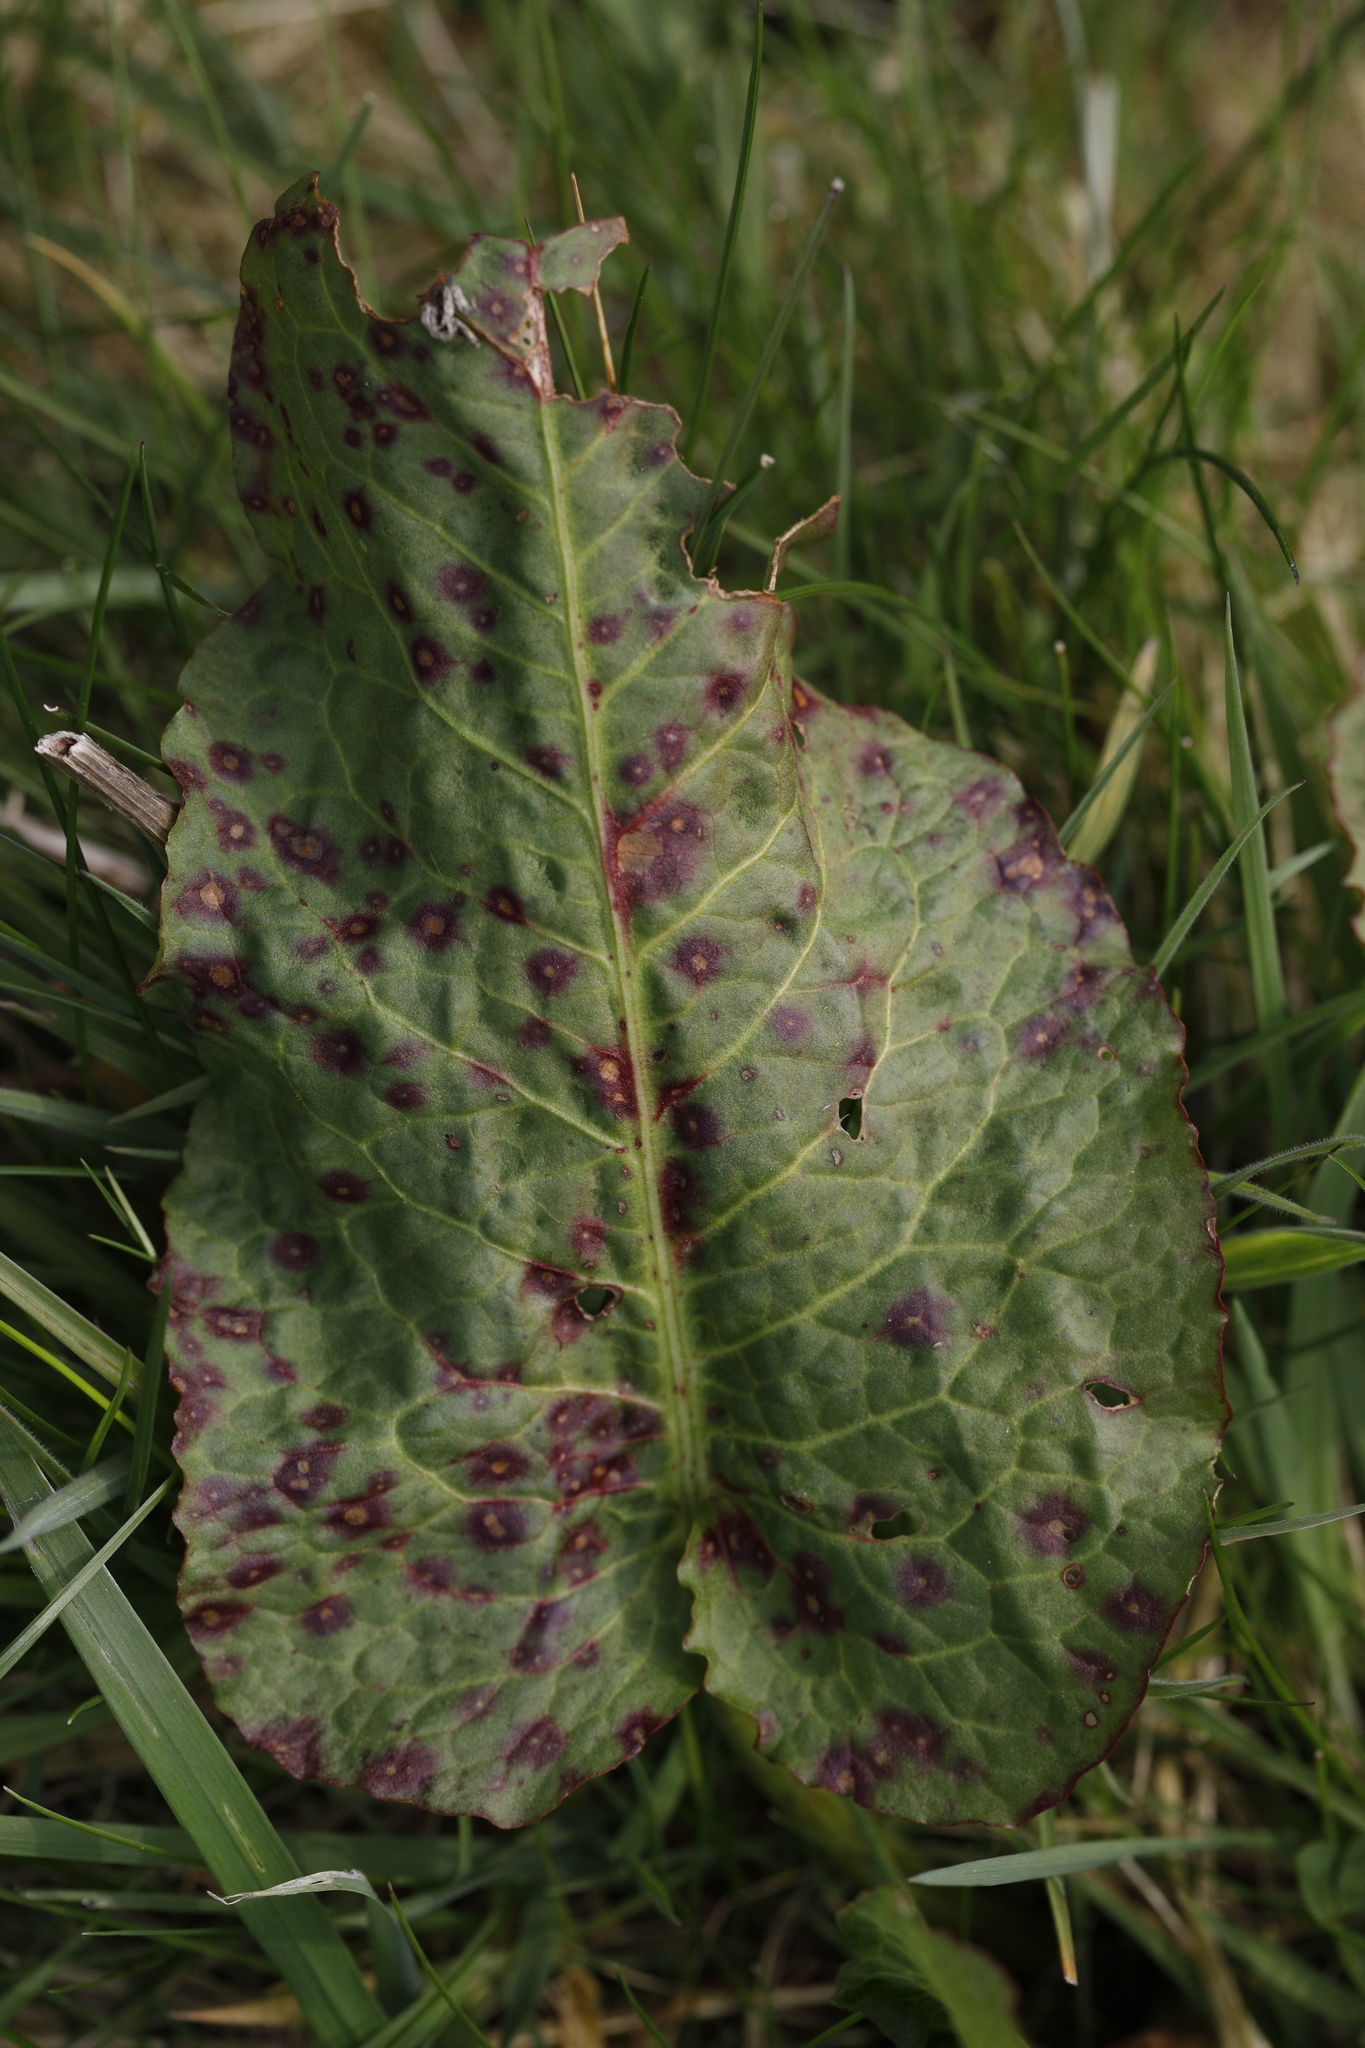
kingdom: Fungi
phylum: Ascomycota
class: Dothideomycetes
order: Mycosphaerellales
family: Mycosphaerellaceae
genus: Ramularia
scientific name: Ramularia rubella
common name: Red dock spot
